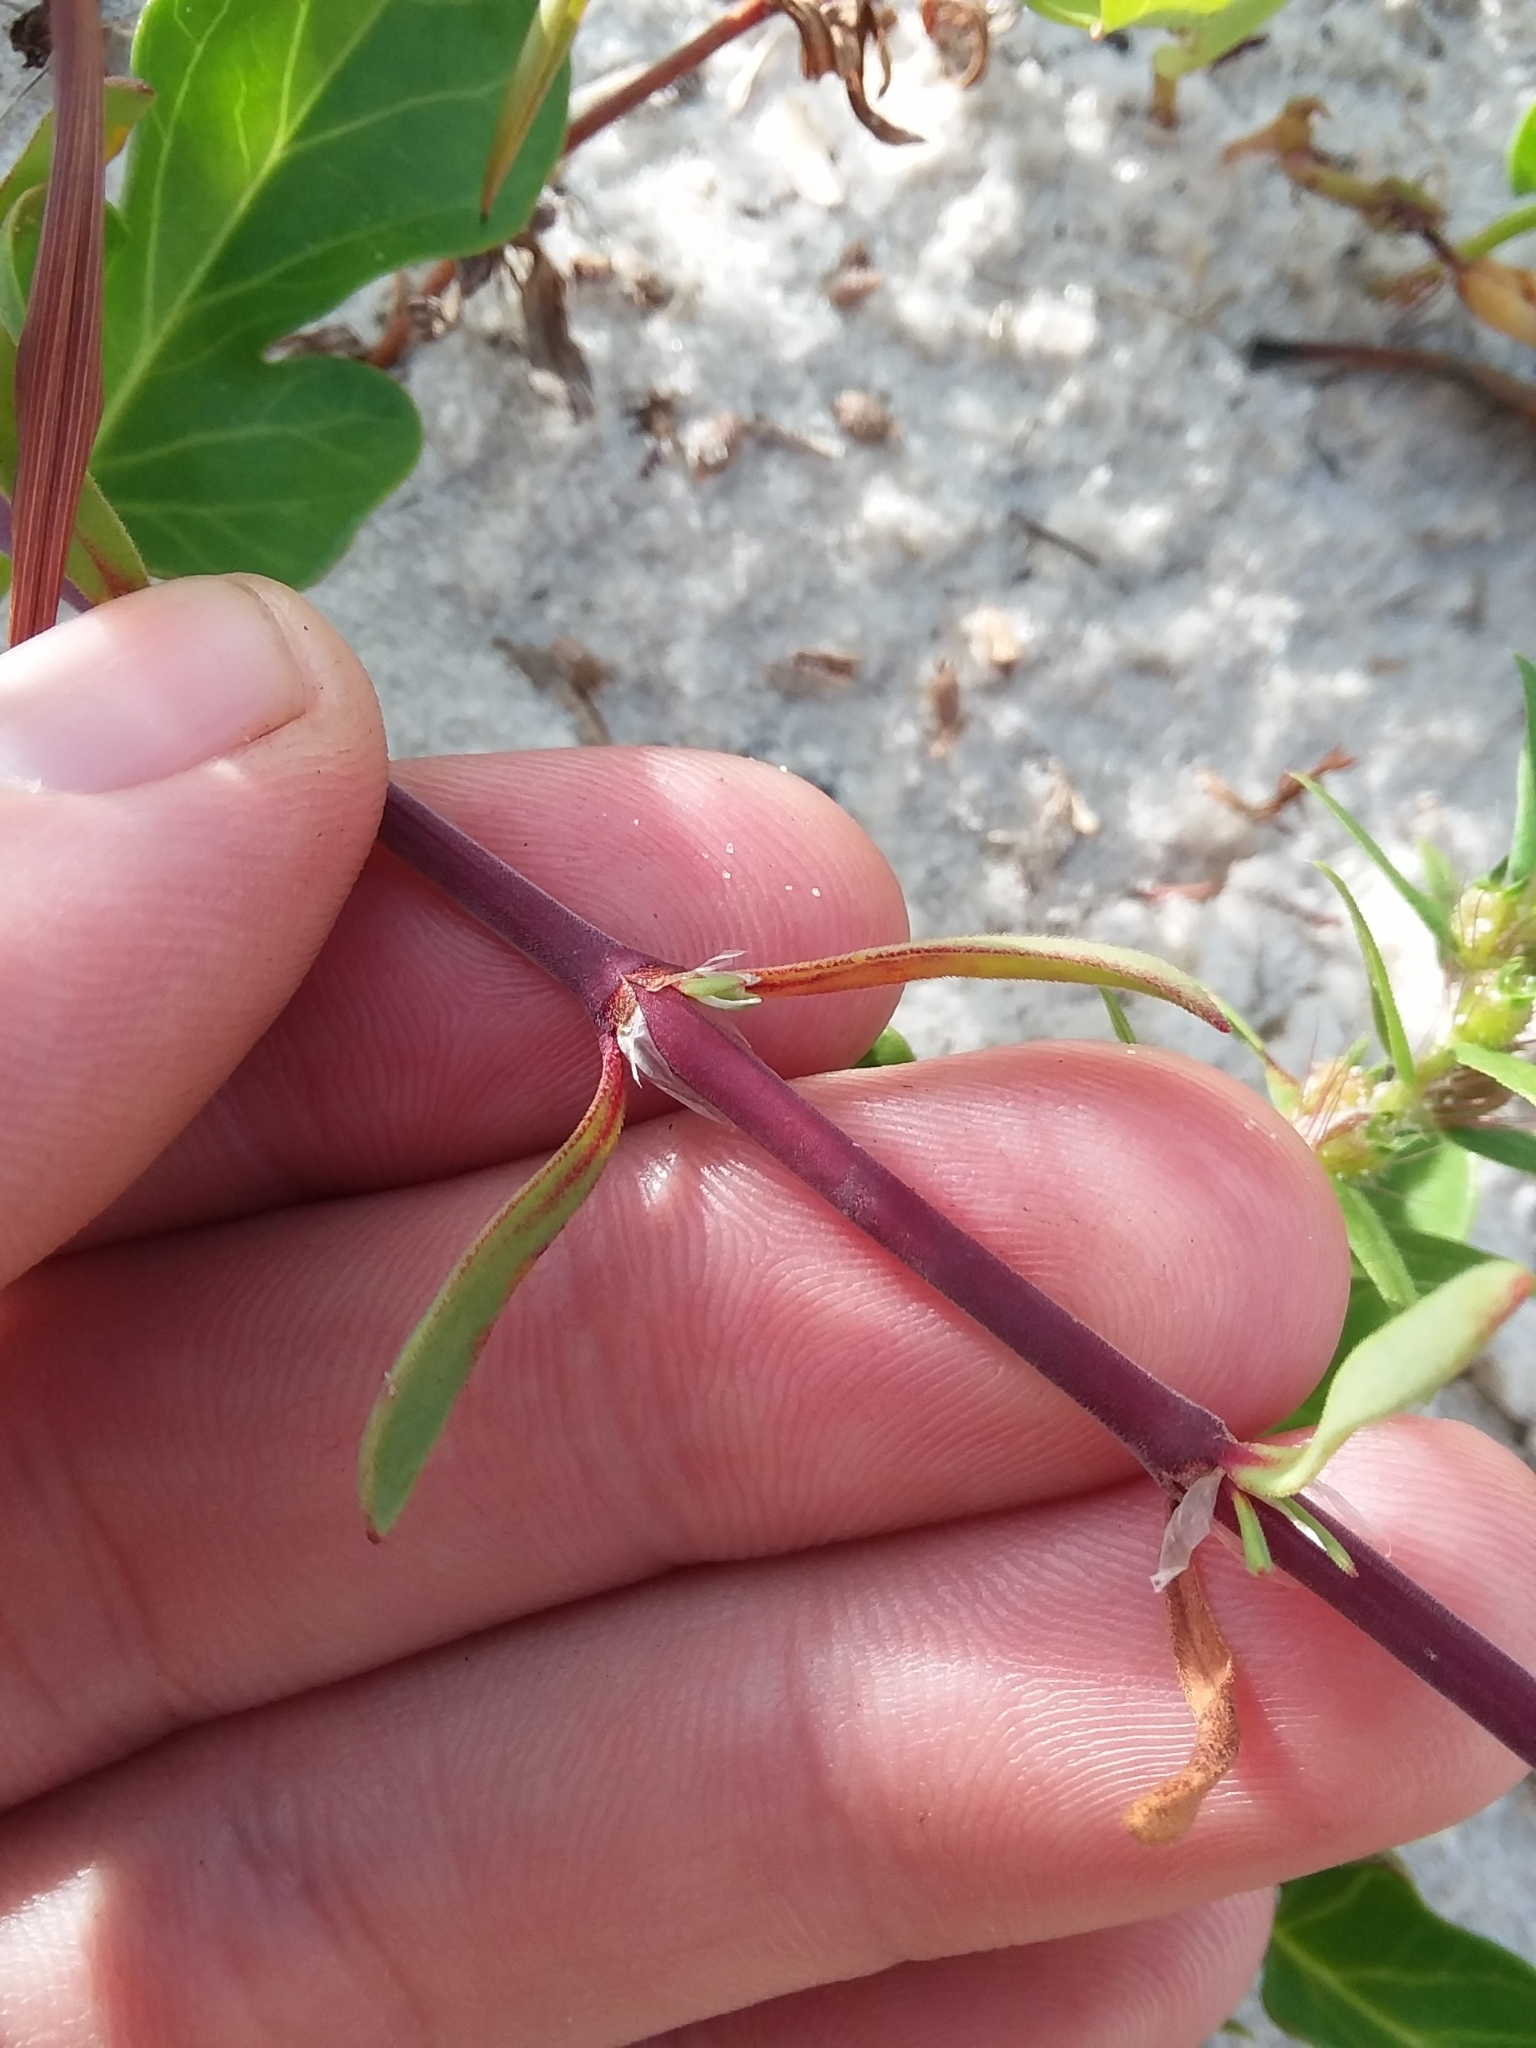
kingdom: Plantae
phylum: Tracheophyta
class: Magnoliopsida
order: Caryophyllales
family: Caryophyllaceae
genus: Paronychia
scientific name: Paronychia erecta
